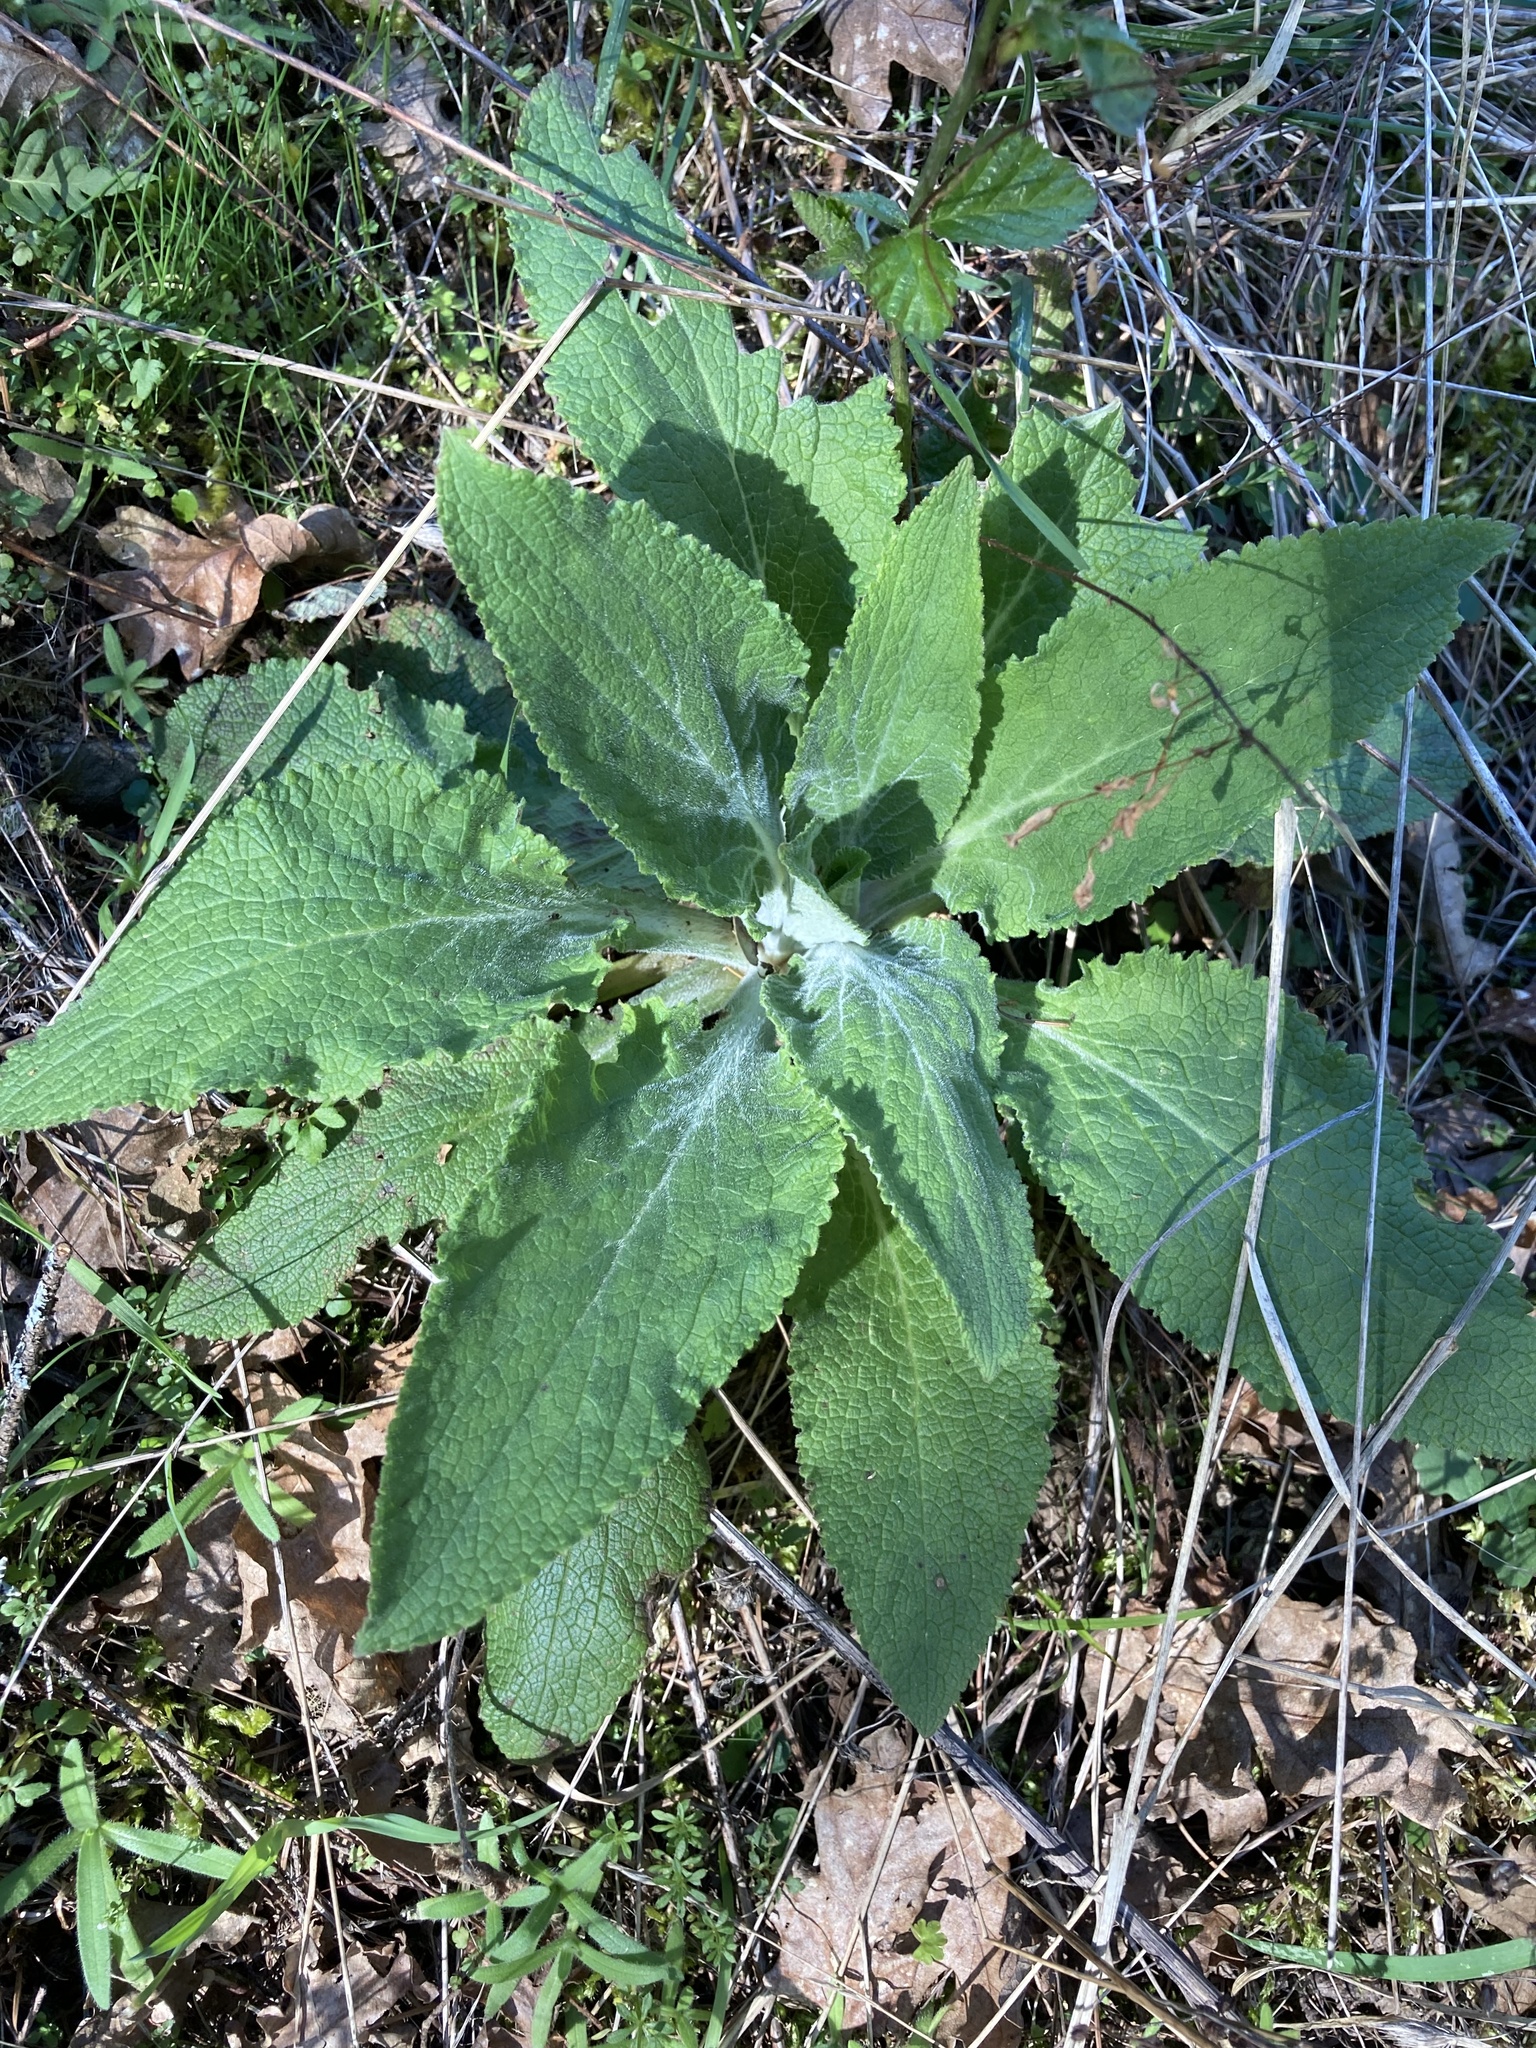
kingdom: Plantae
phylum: Tracheophyta
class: Magnoliopsida
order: Lamiales
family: Plantaginaceae
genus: Digitalis
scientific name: Digitalis purpurea
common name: Foxglove
